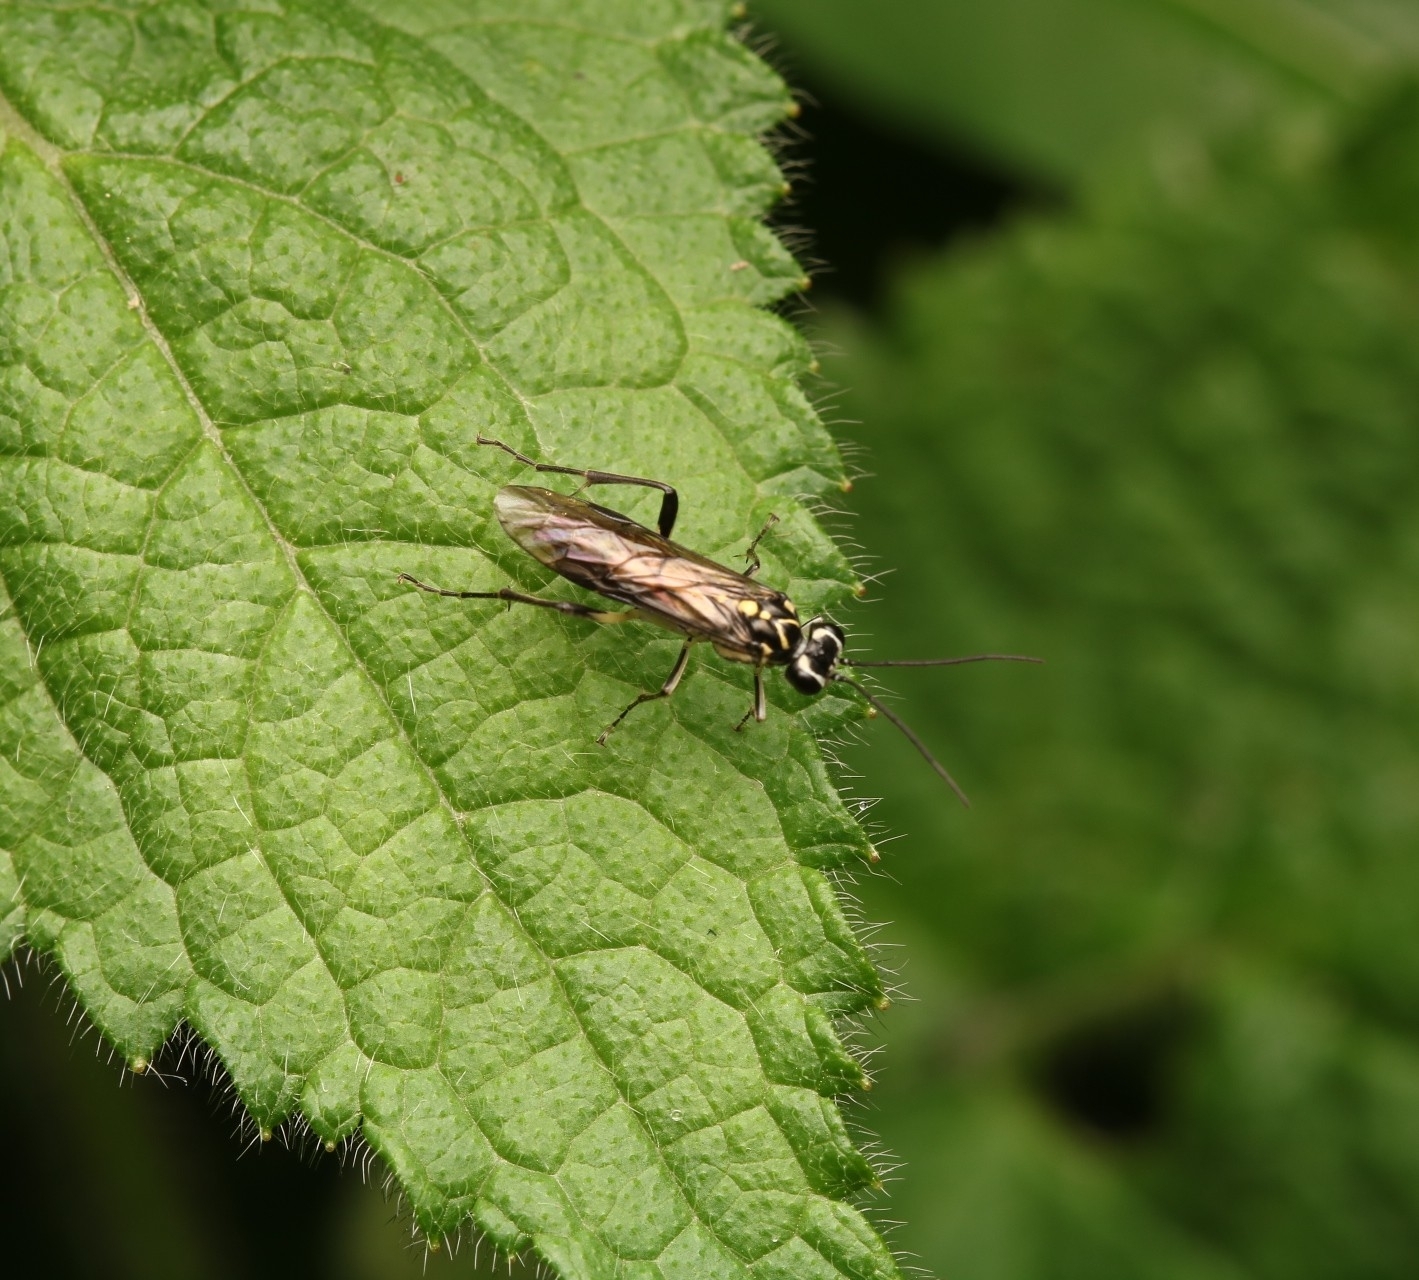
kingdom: Animalia
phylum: Arthropoda
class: Insecta
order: Hymenoptera
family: Tenthredinidae
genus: Pachyprotasis
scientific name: Pachyprotasis rapae
